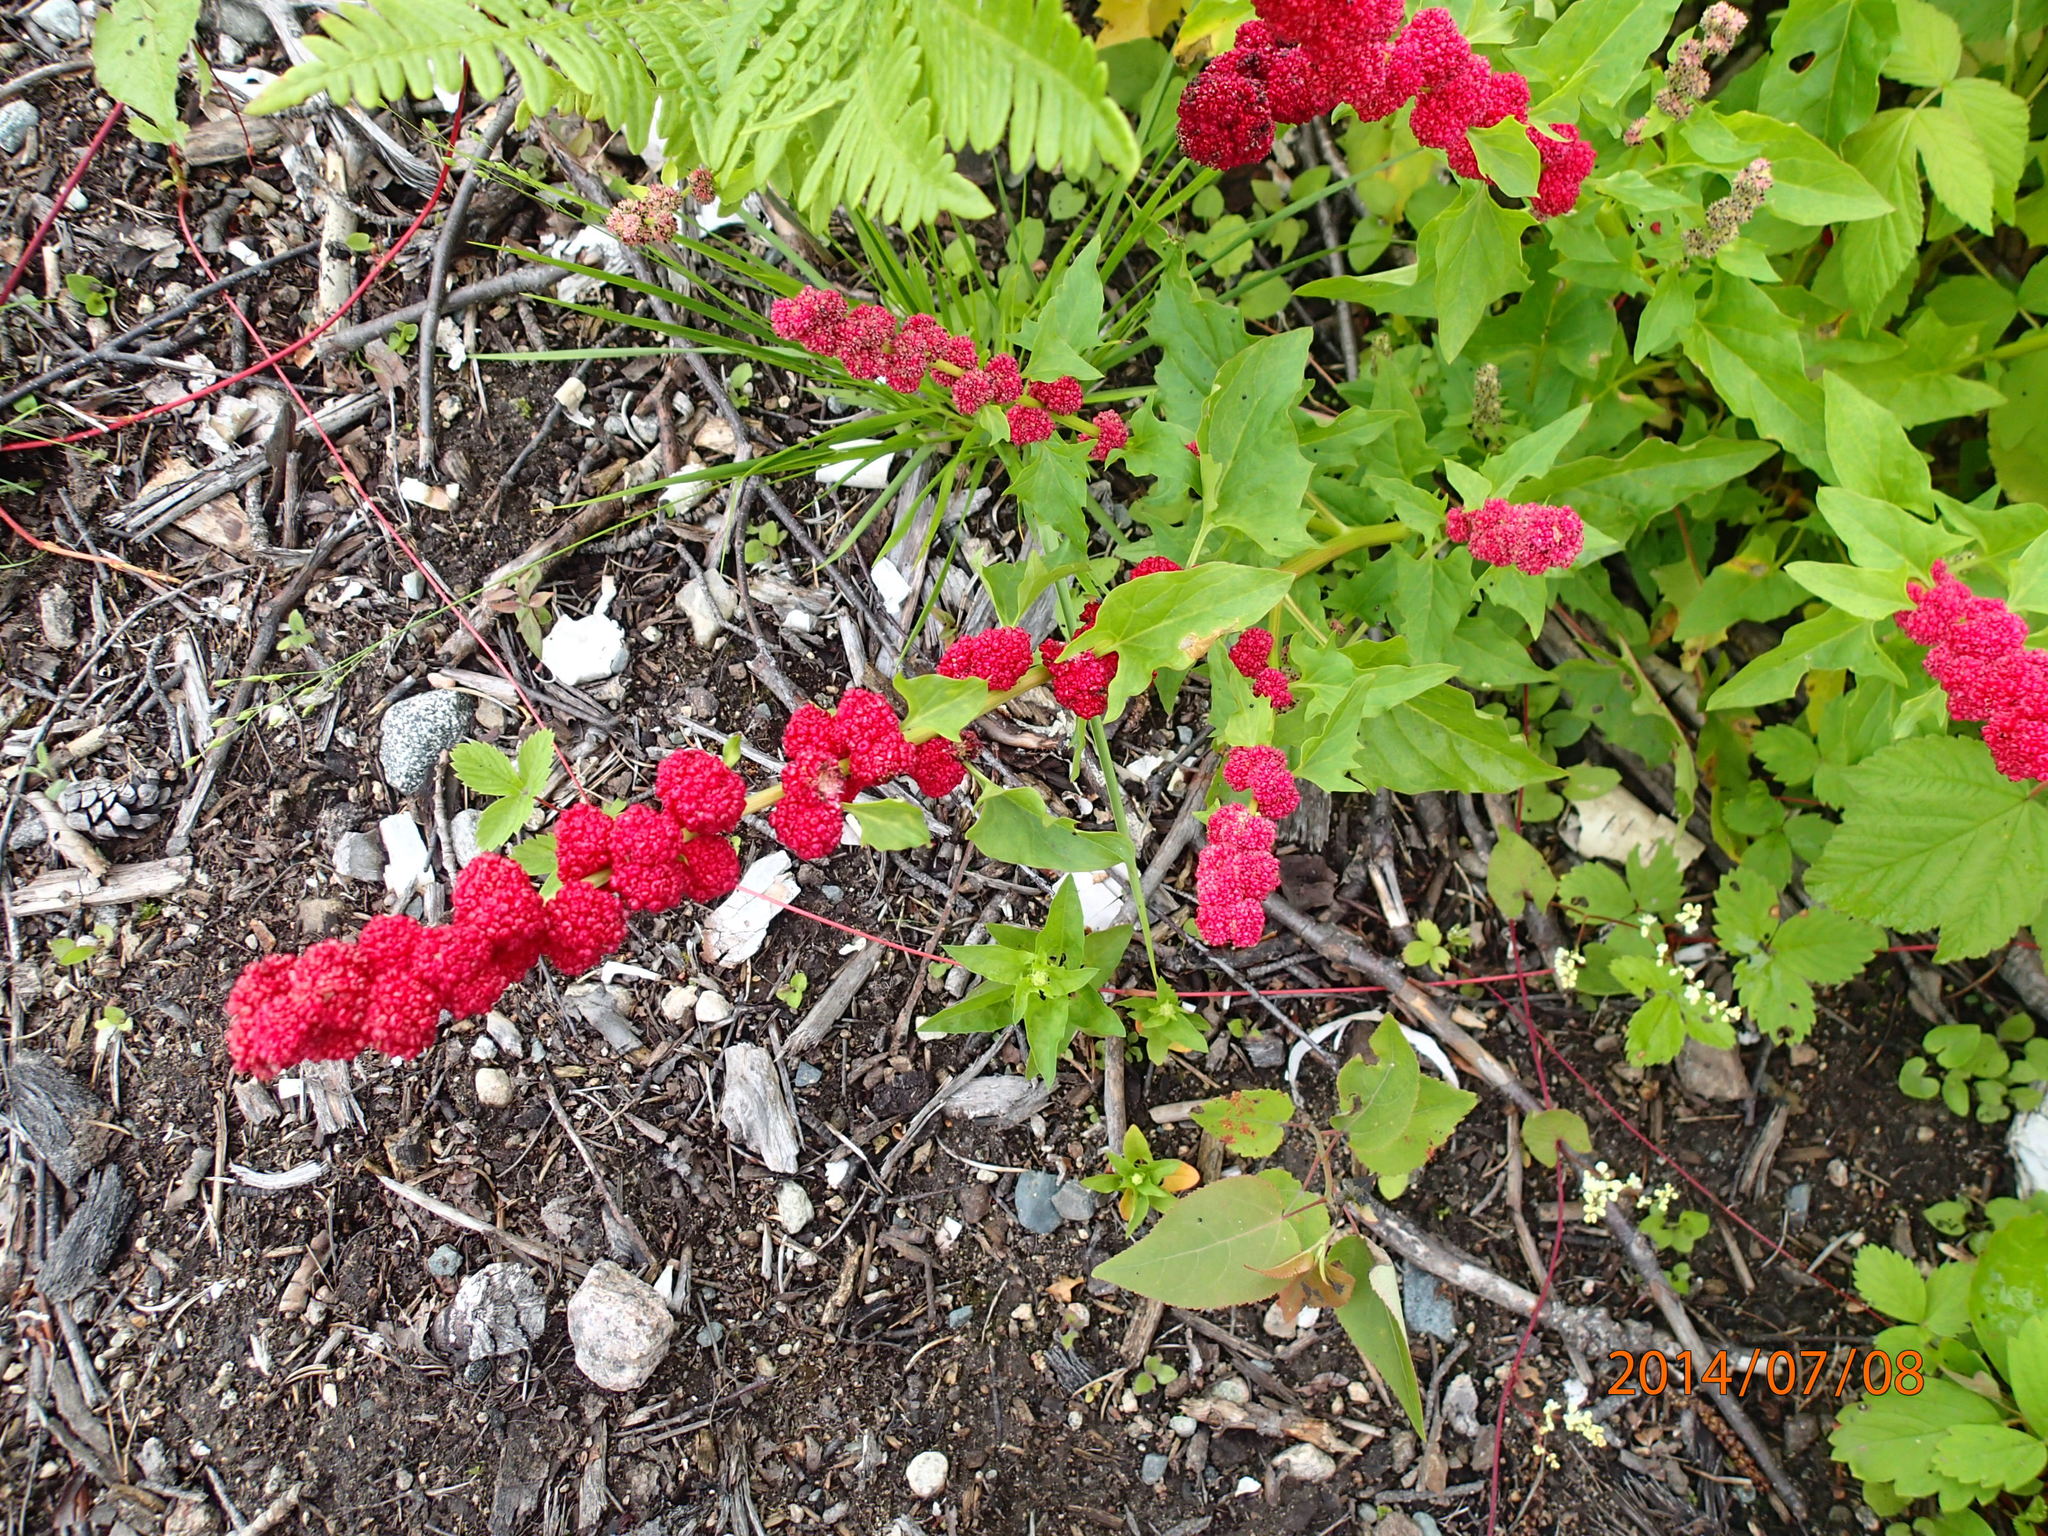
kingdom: Plantae
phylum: Tracheophyta
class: Magnoliopsida
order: Caryophyllales
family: Amaranthaceae
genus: Blitum
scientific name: Blitum capitatum
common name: Strawberry-blight
